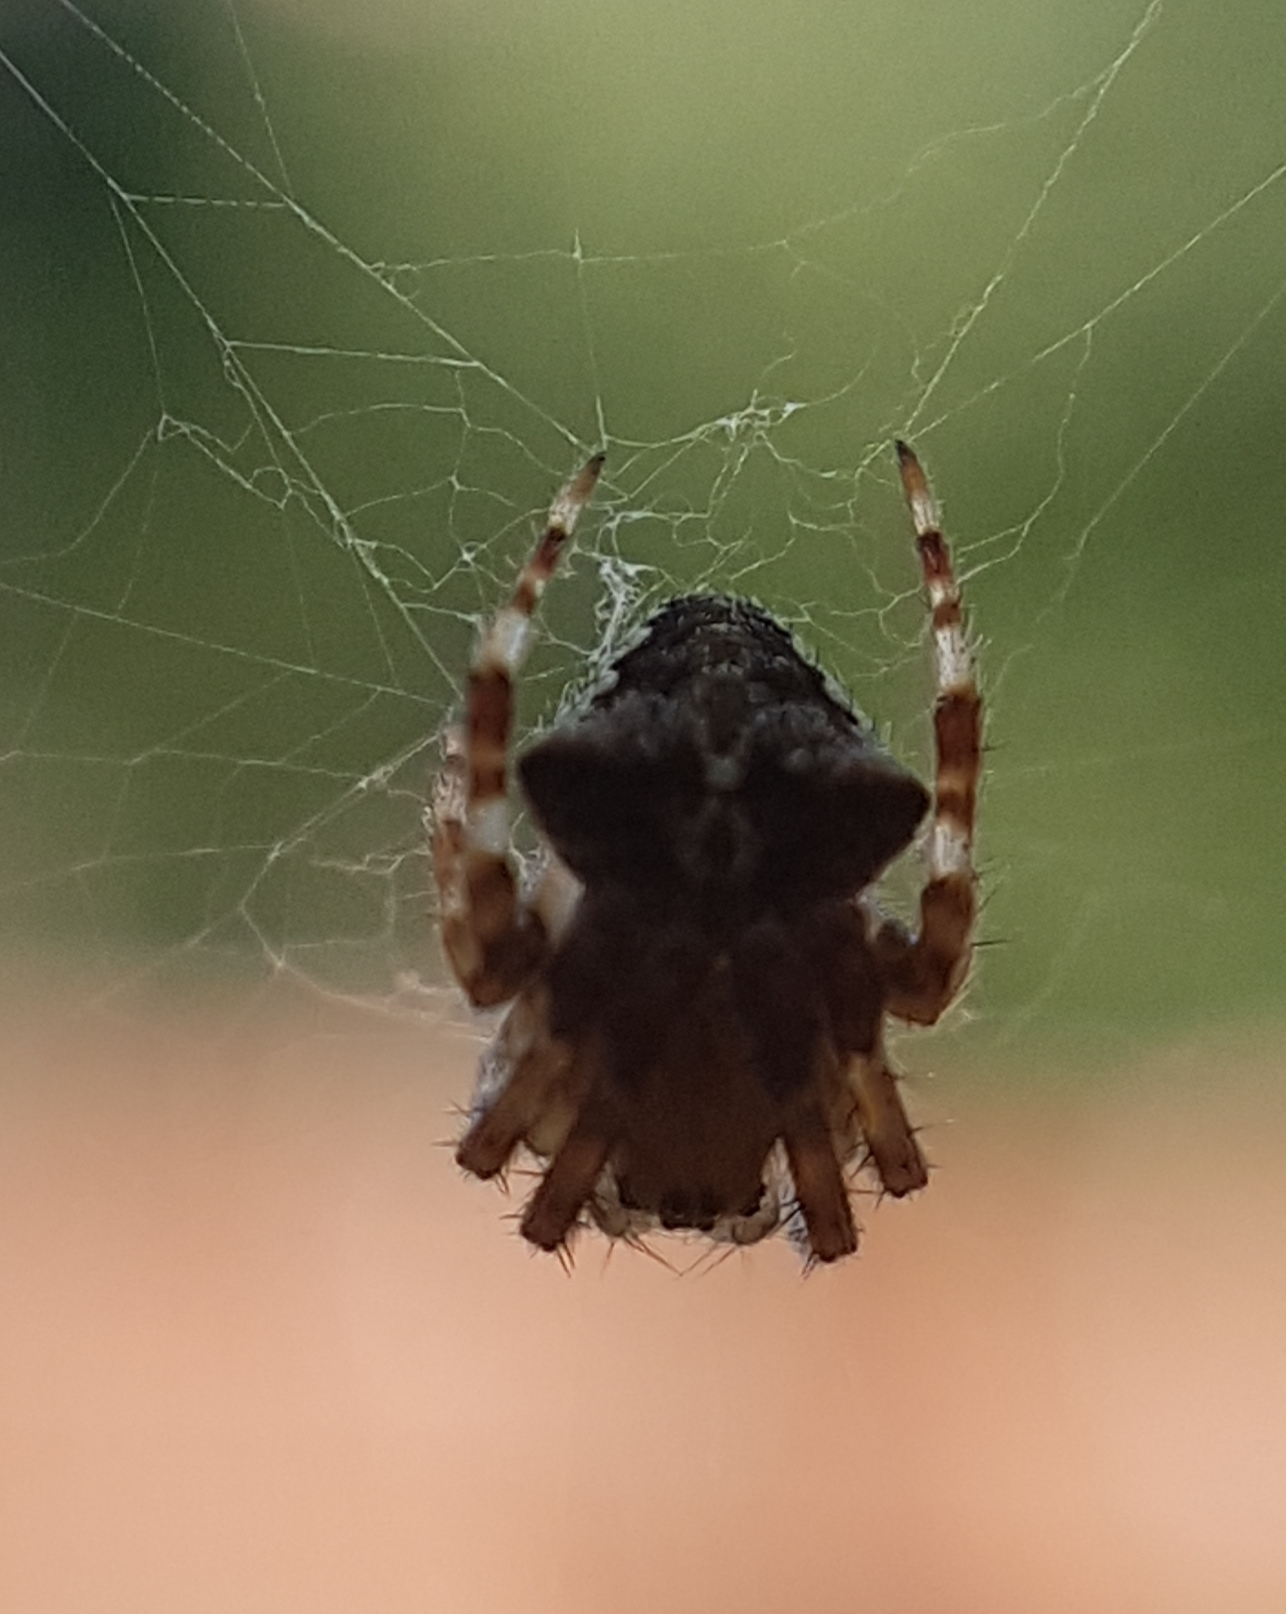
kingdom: Animalia
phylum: Arthropoda
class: Arachnida
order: Araneae
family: Araneidae
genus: Araneus
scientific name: Araneus angulatus
